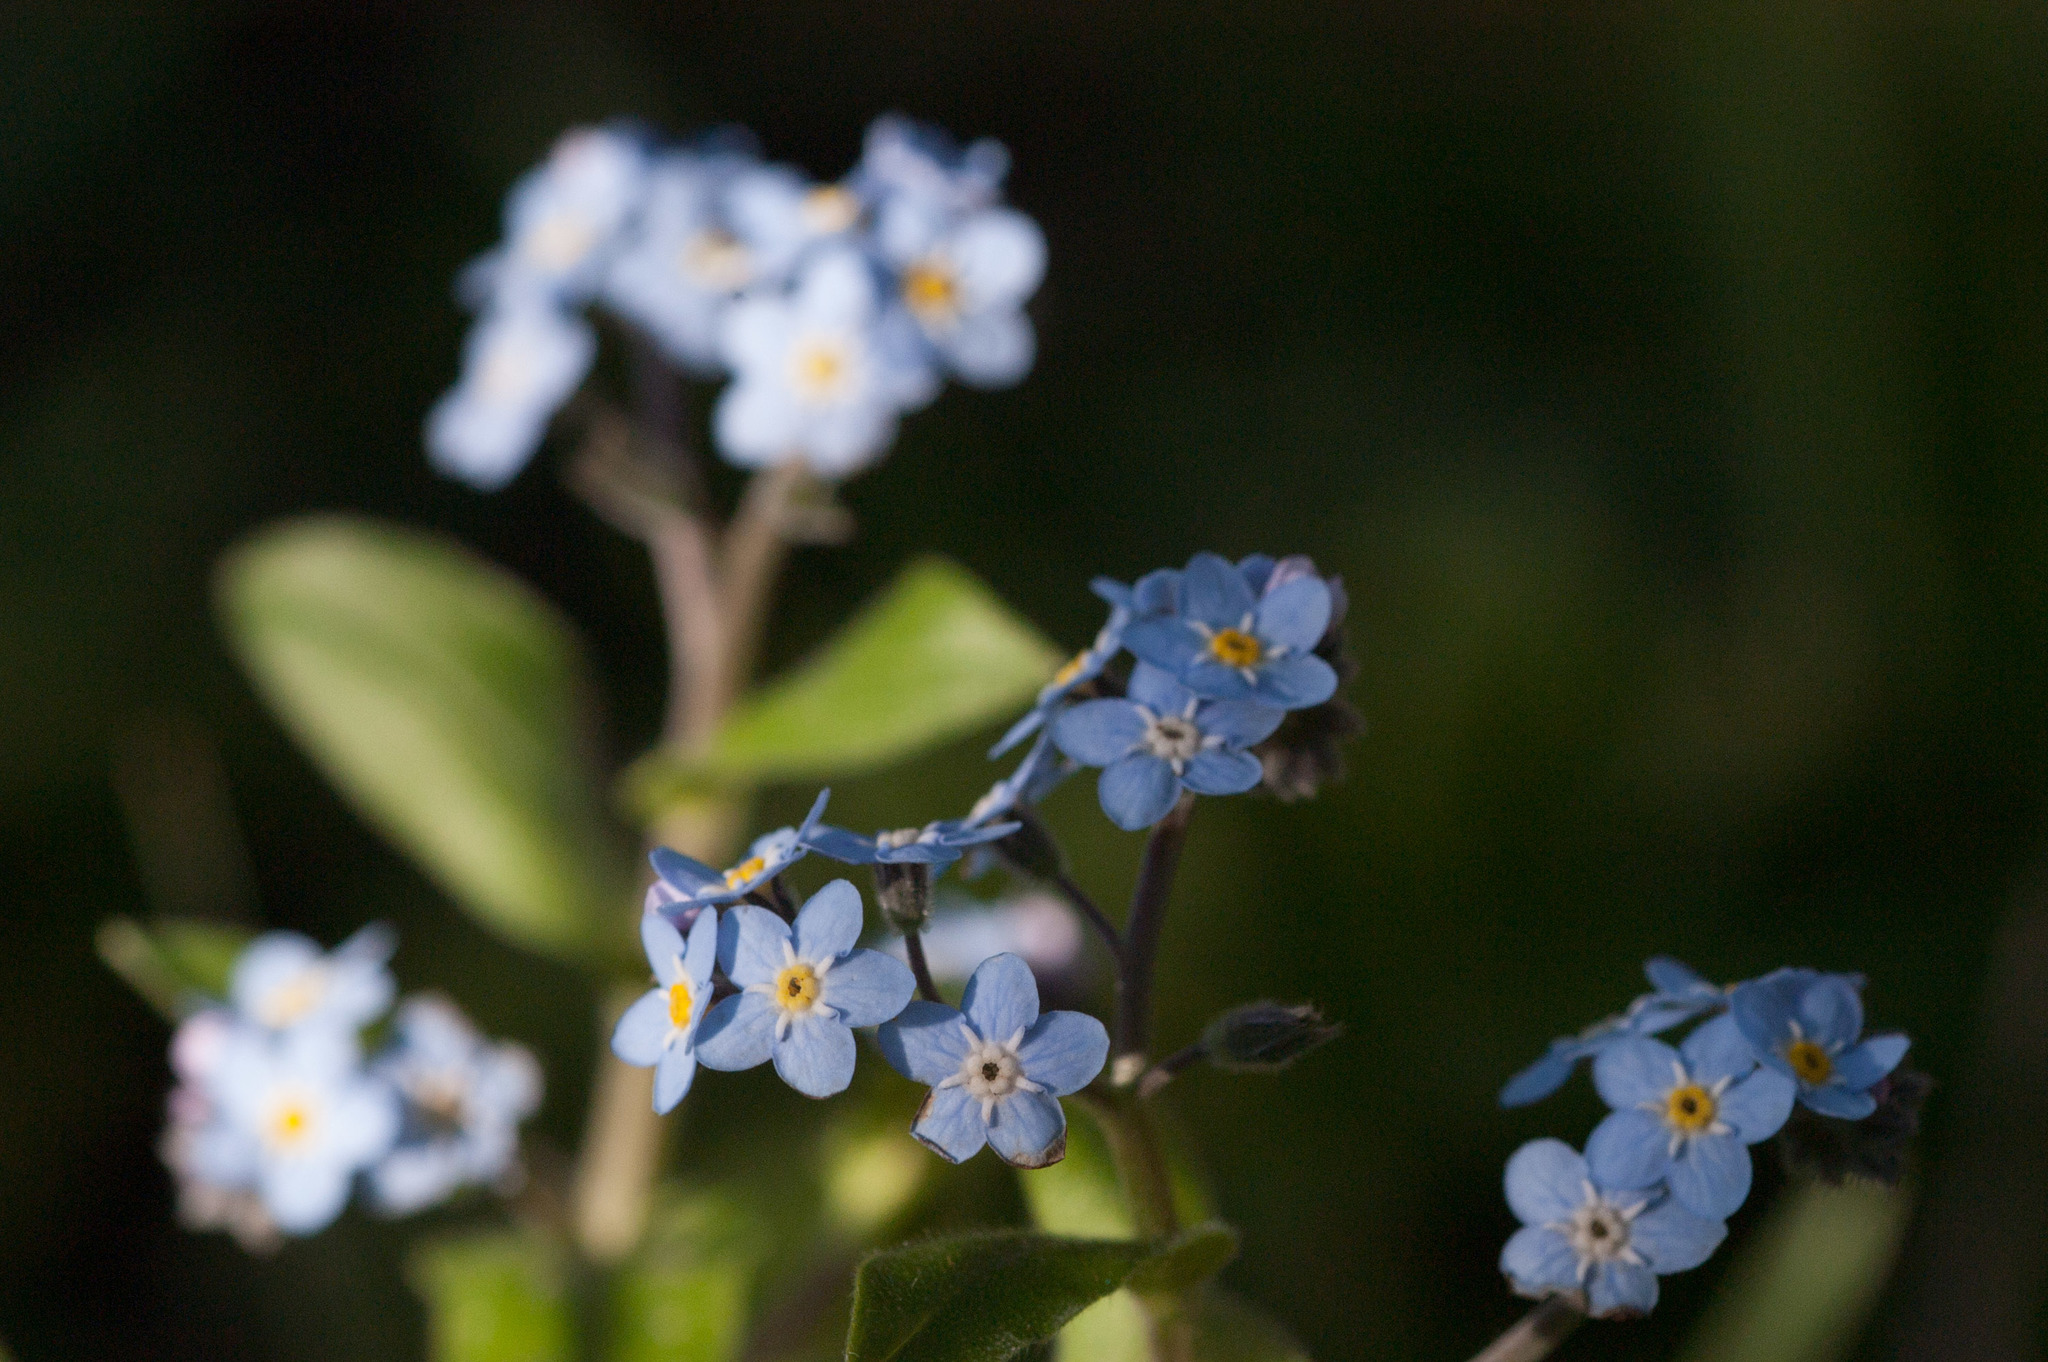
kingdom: Plantae
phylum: Tracheophyta
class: Magnoliopsida
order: Boraginales
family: Boraginaceae
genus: Myosotis
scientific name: Myosotis sylvatica
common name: Wood forget-me-not
